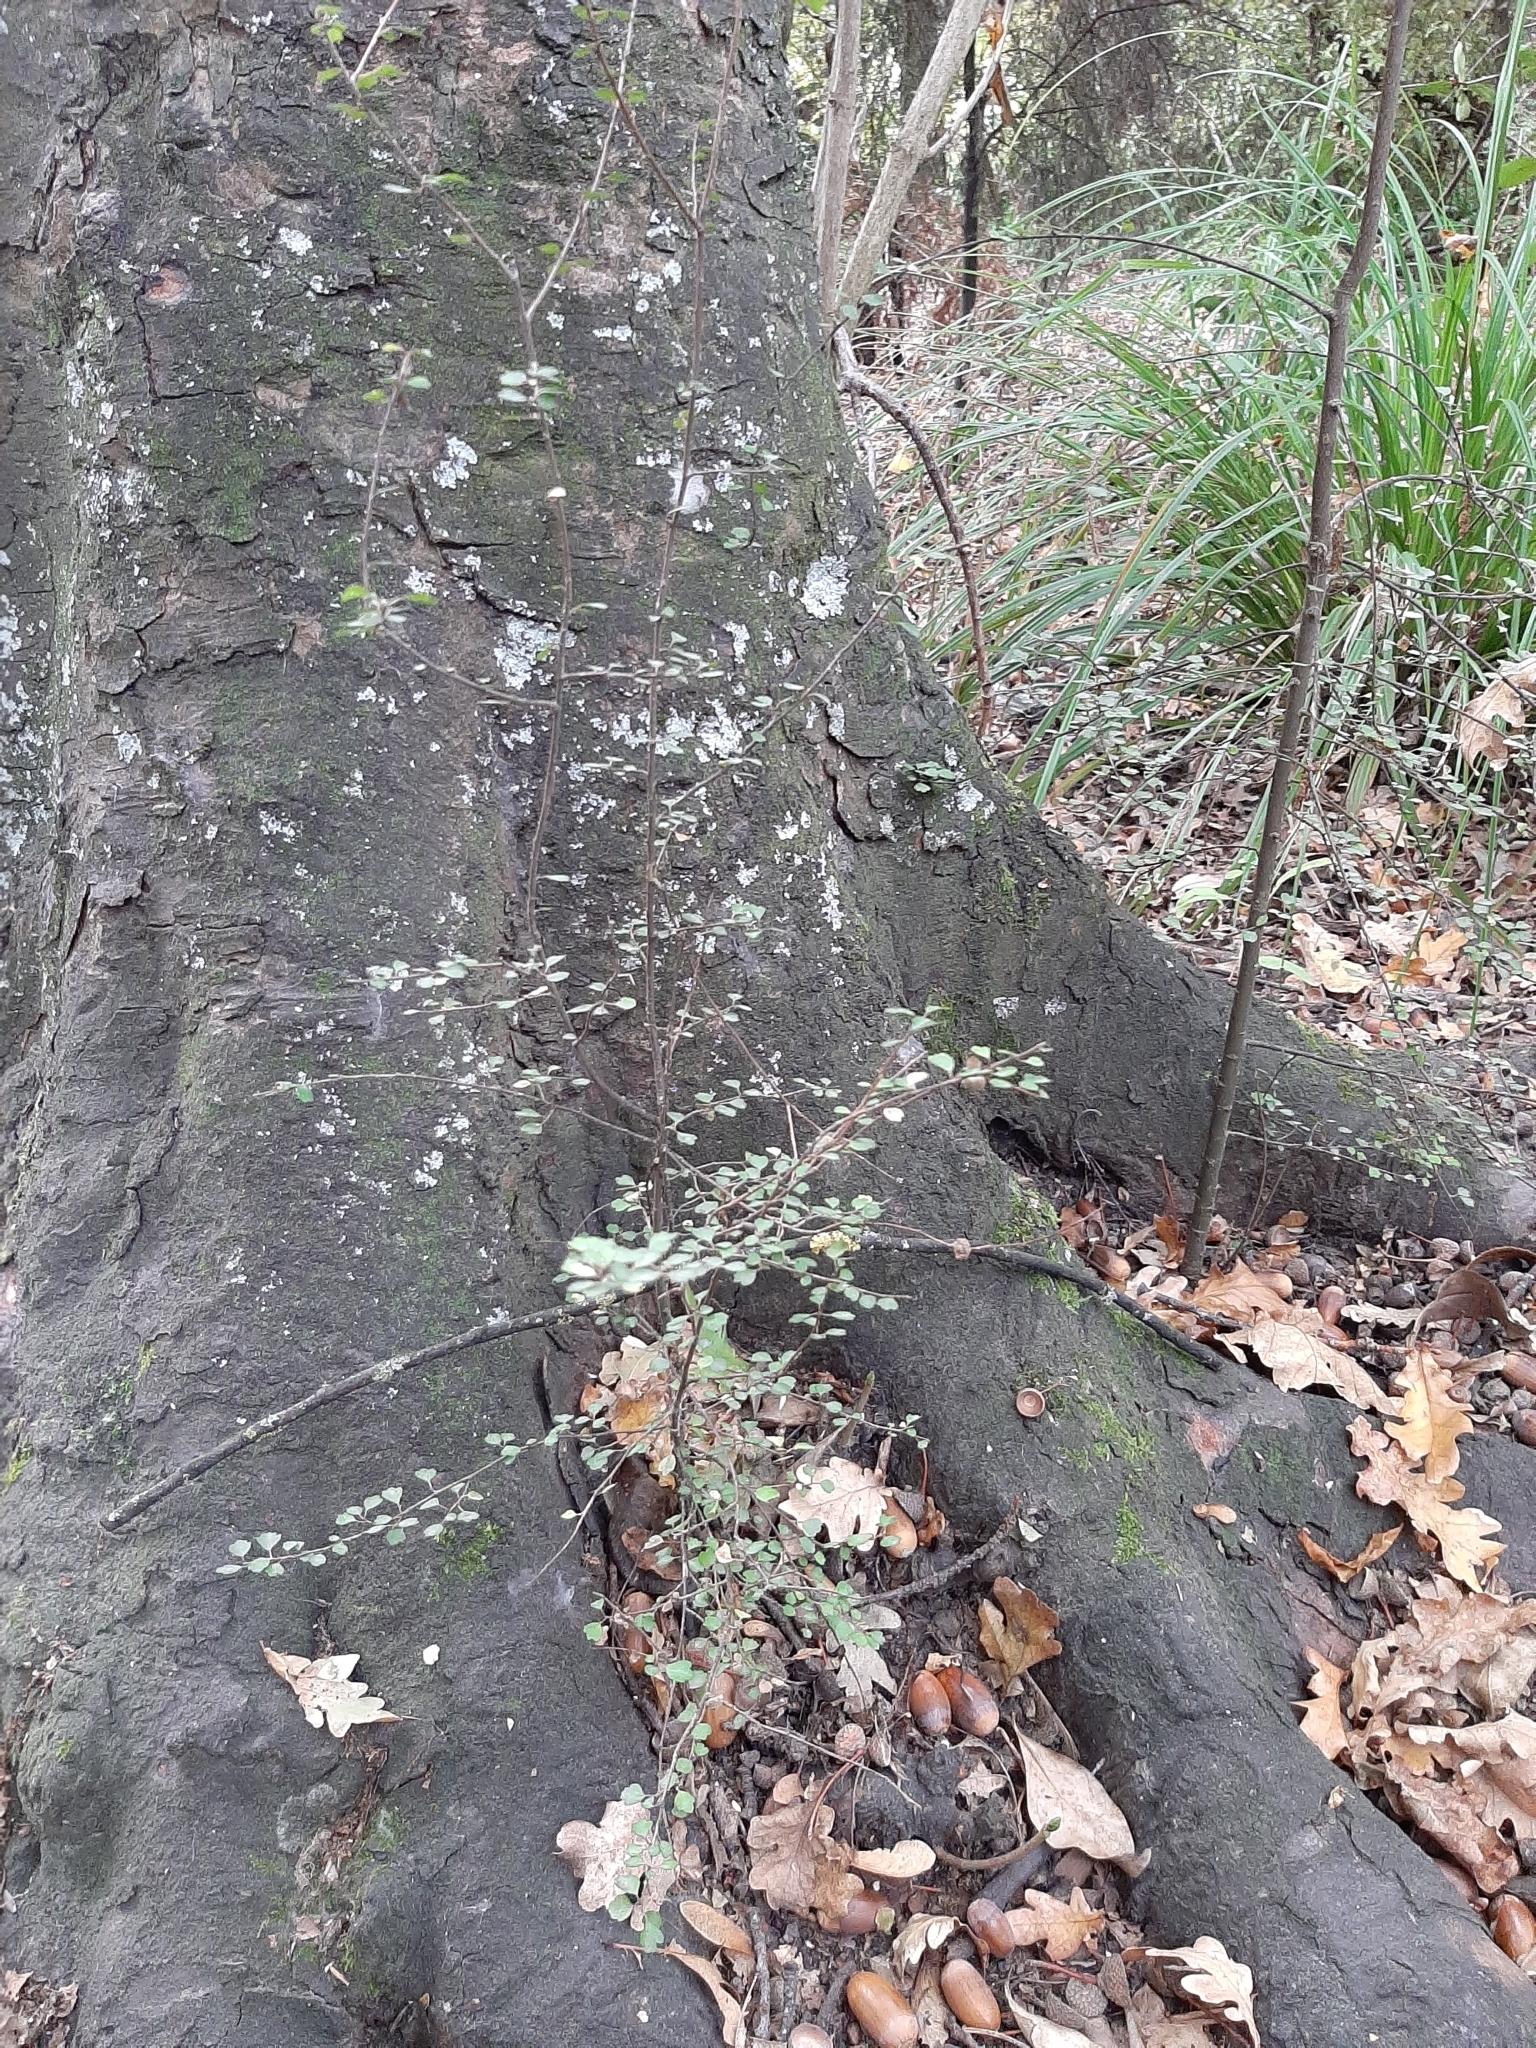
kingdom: Plantae
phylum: Tracheophyta
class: Magnoliopsida
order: Malvales
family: Malvaceae
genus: Hoheria
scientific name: Hoheria angustifolia
